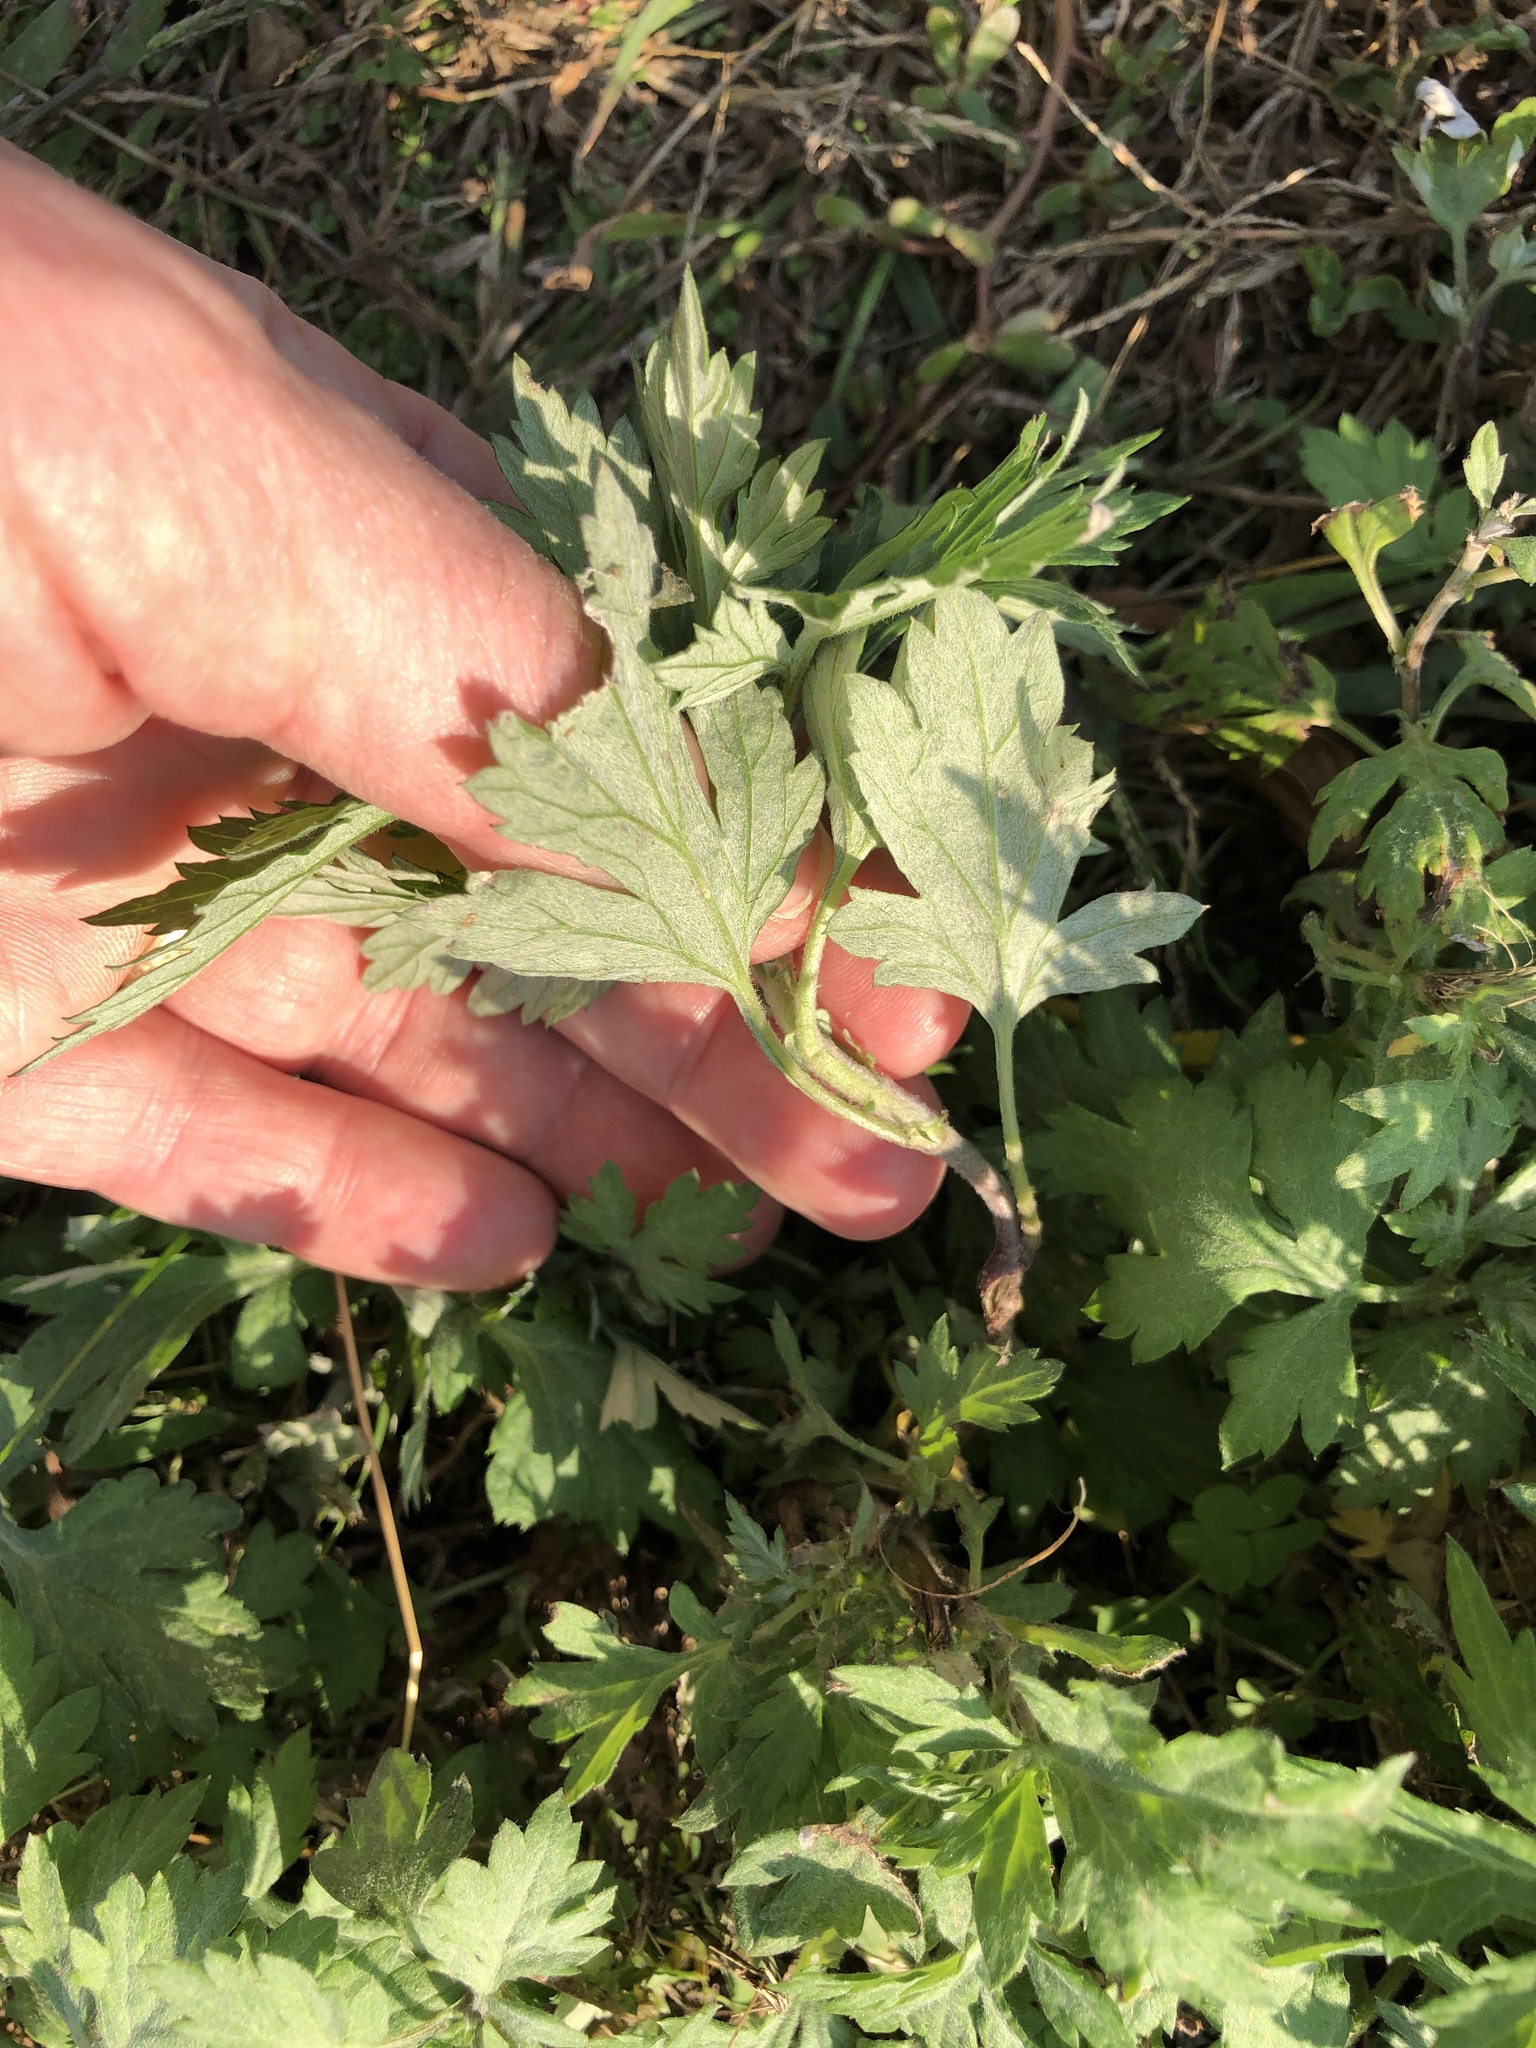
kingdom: Plantae
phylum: Tracheophyta
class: Magnoliopsida
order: Asterales
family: Asteraceae
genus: Artemisia
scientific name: Artemisia vulgaris
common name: Mugwort
